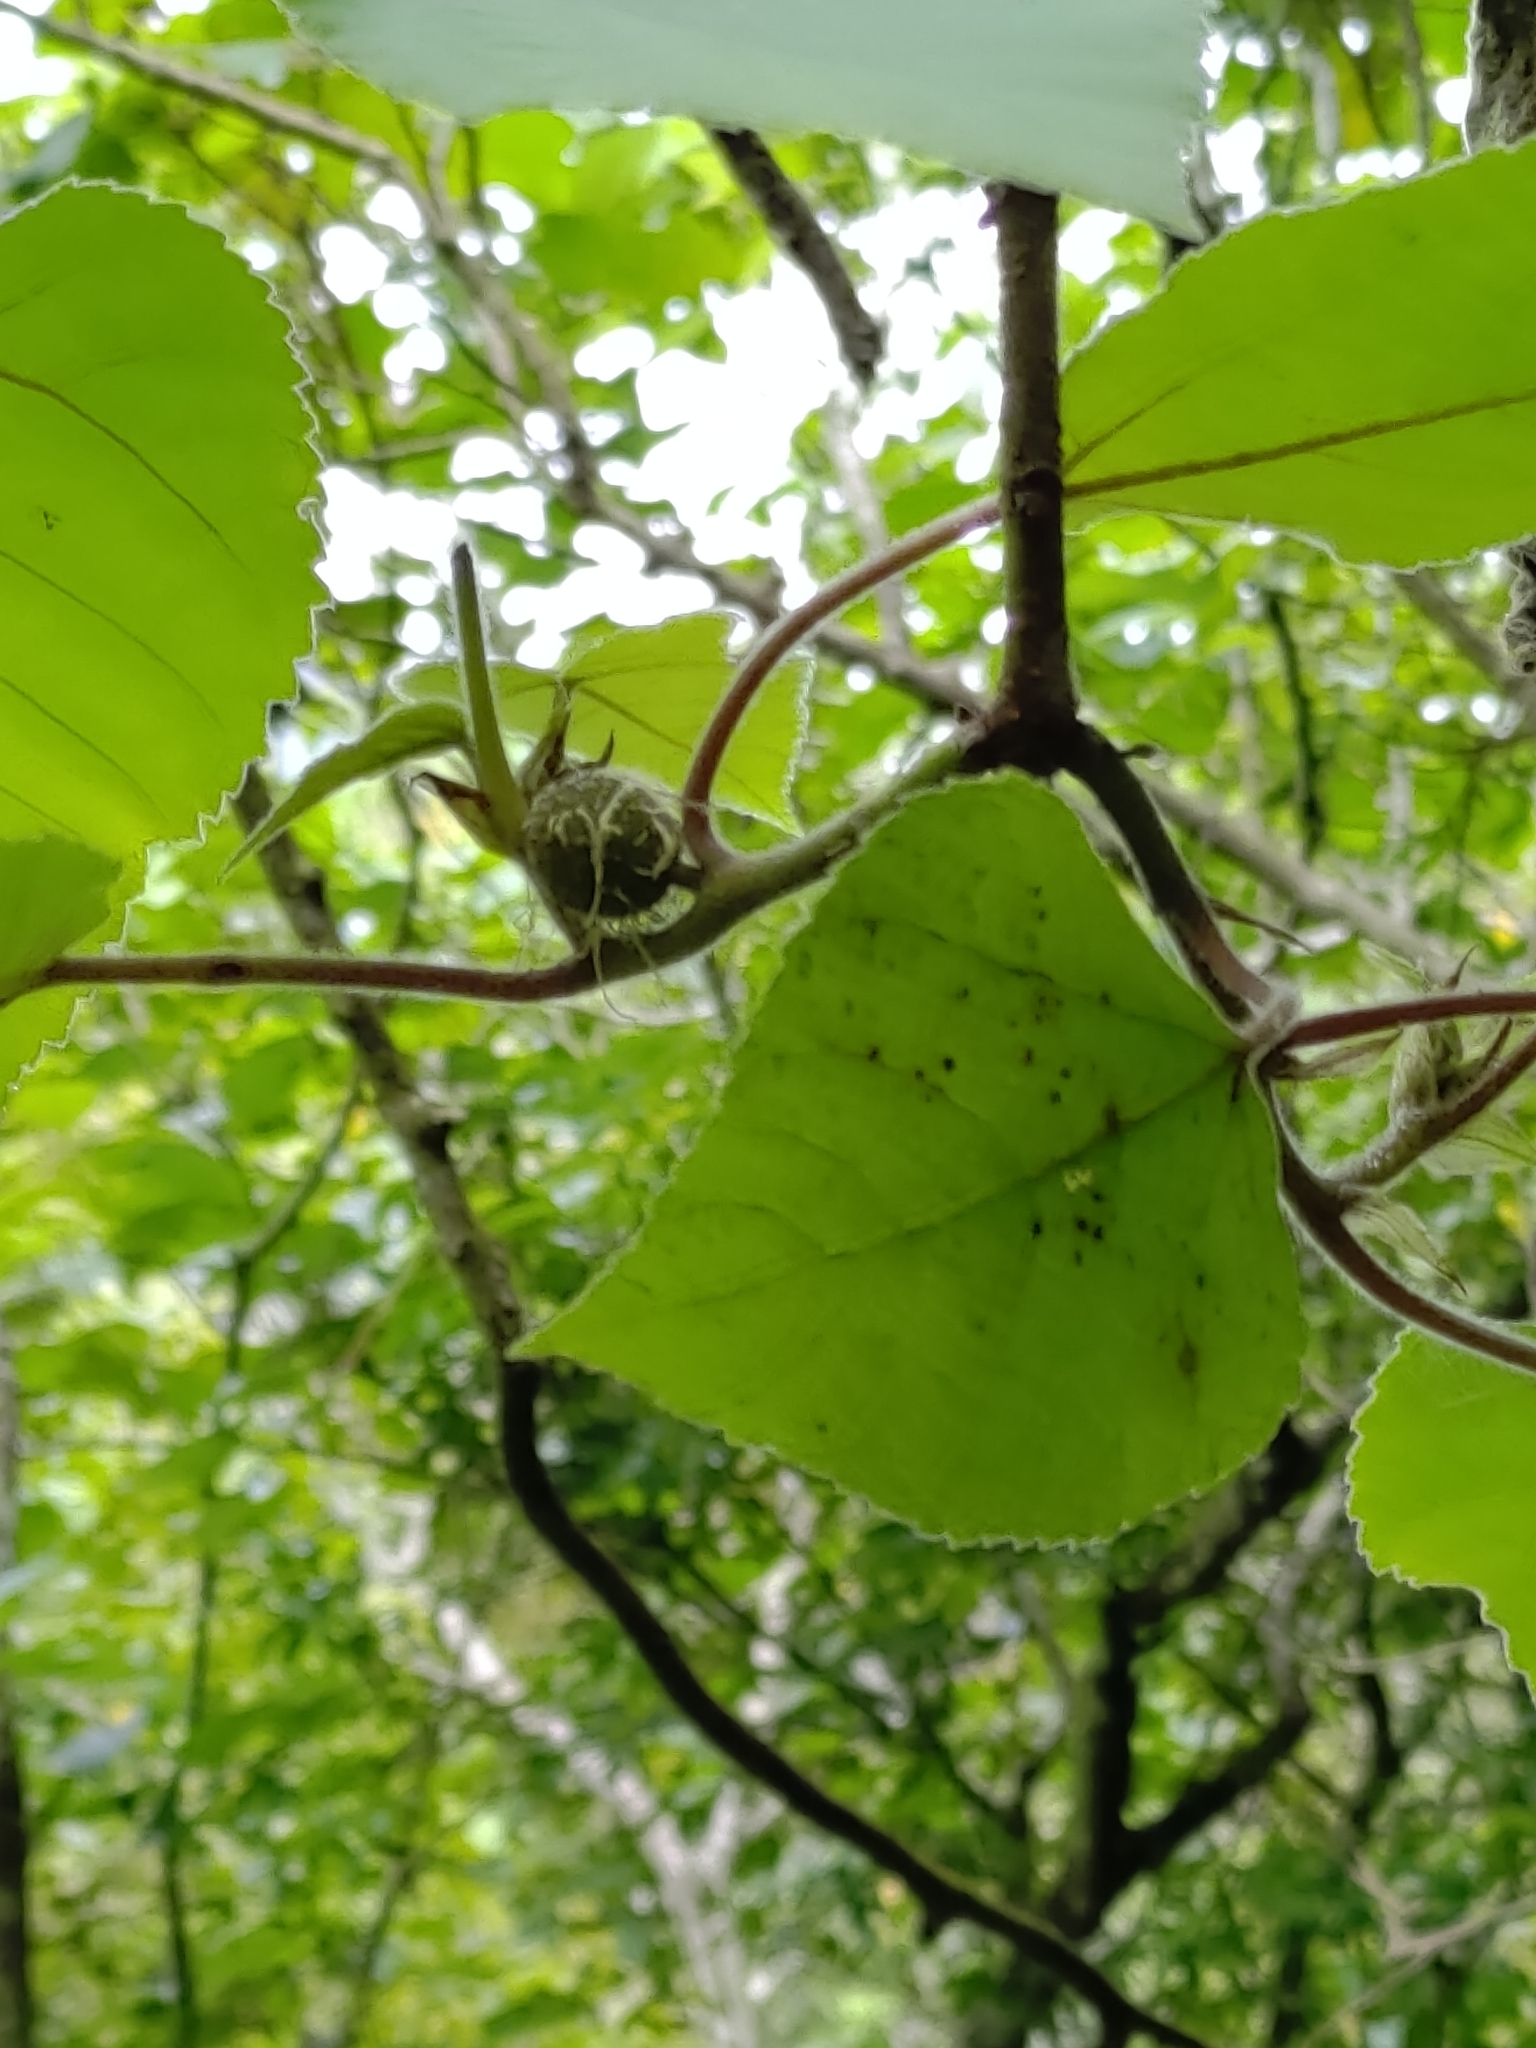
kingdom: Plantae
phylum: Tracheophyta
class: Magnoliopsida
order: Rosales
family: Moraceae
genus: Broussonetia
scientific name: Broussonetia papyrifera
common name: Paper mulberry
